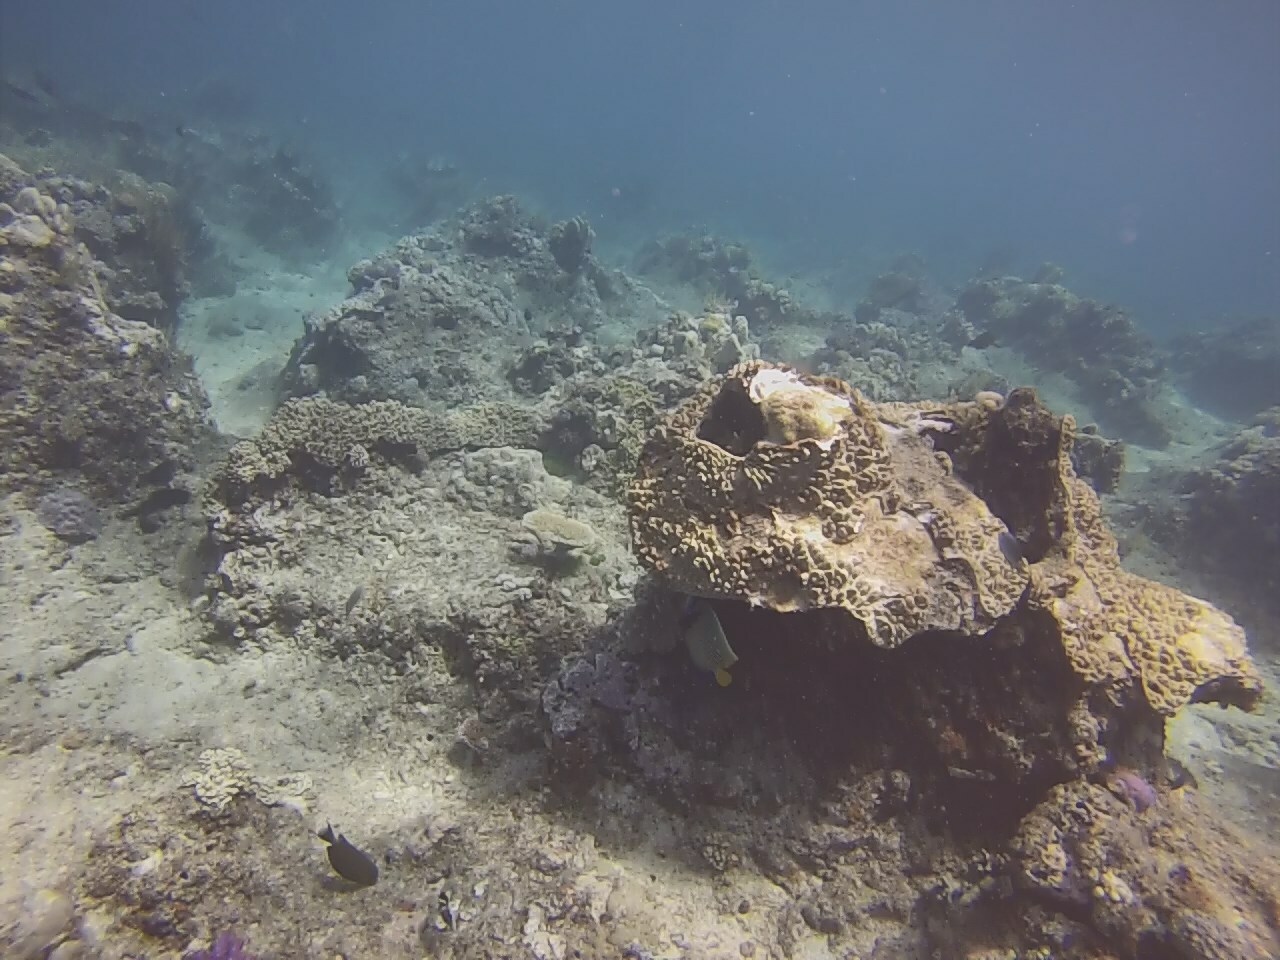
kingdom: Animalia
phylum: Chordata
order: Perciformes
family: Pomacanthidae
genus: Pomacanthus
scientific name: Pomacanthus imperator
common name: Emperor angelfish
